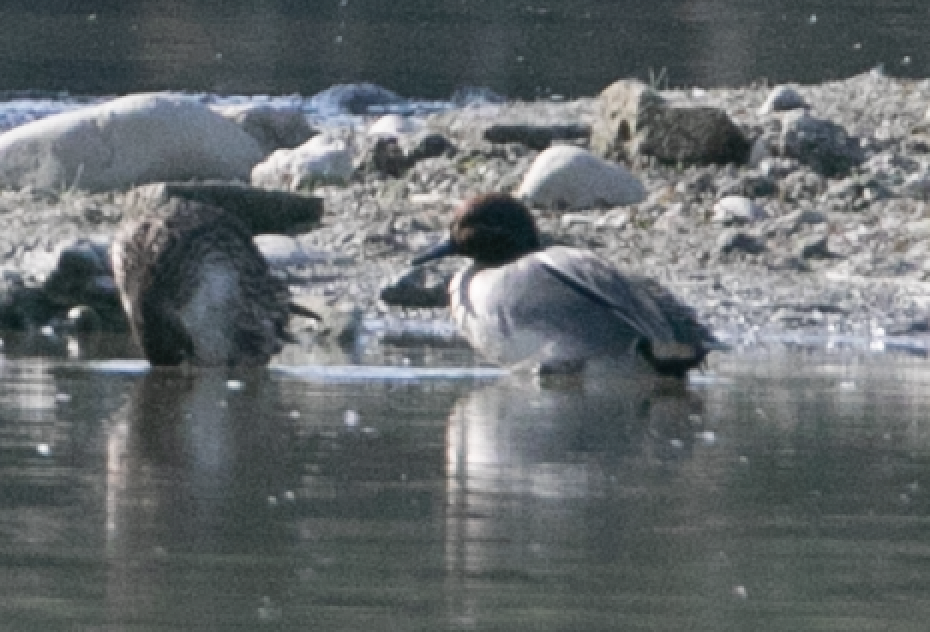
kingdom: Animalia
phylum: Chordata
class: Aves
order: Anseriformes
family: Anatidae
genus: Anas
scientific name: Anas crecca
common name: Eurasian teal
